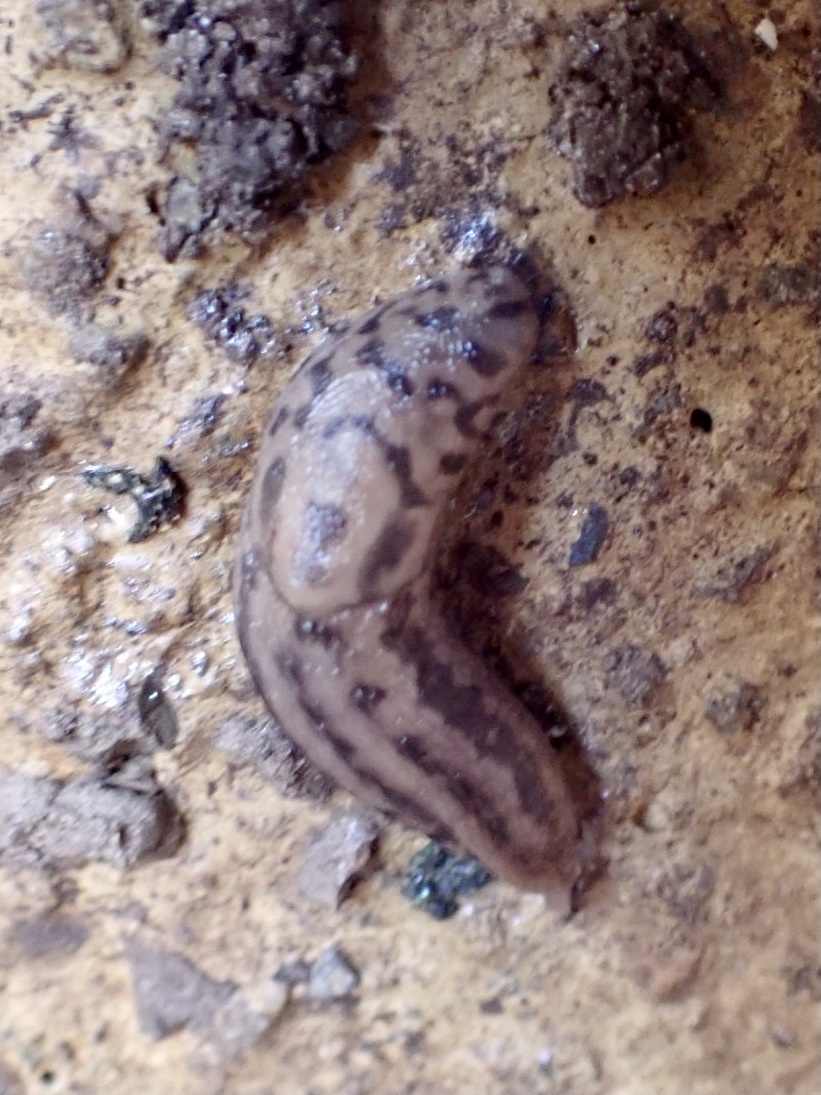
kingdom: Animalia
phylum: Mollusca
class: Gastropoda
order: Stylommatophora
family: Limacidae
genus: Limax
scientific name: Limax maximus
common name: Great grey slug
